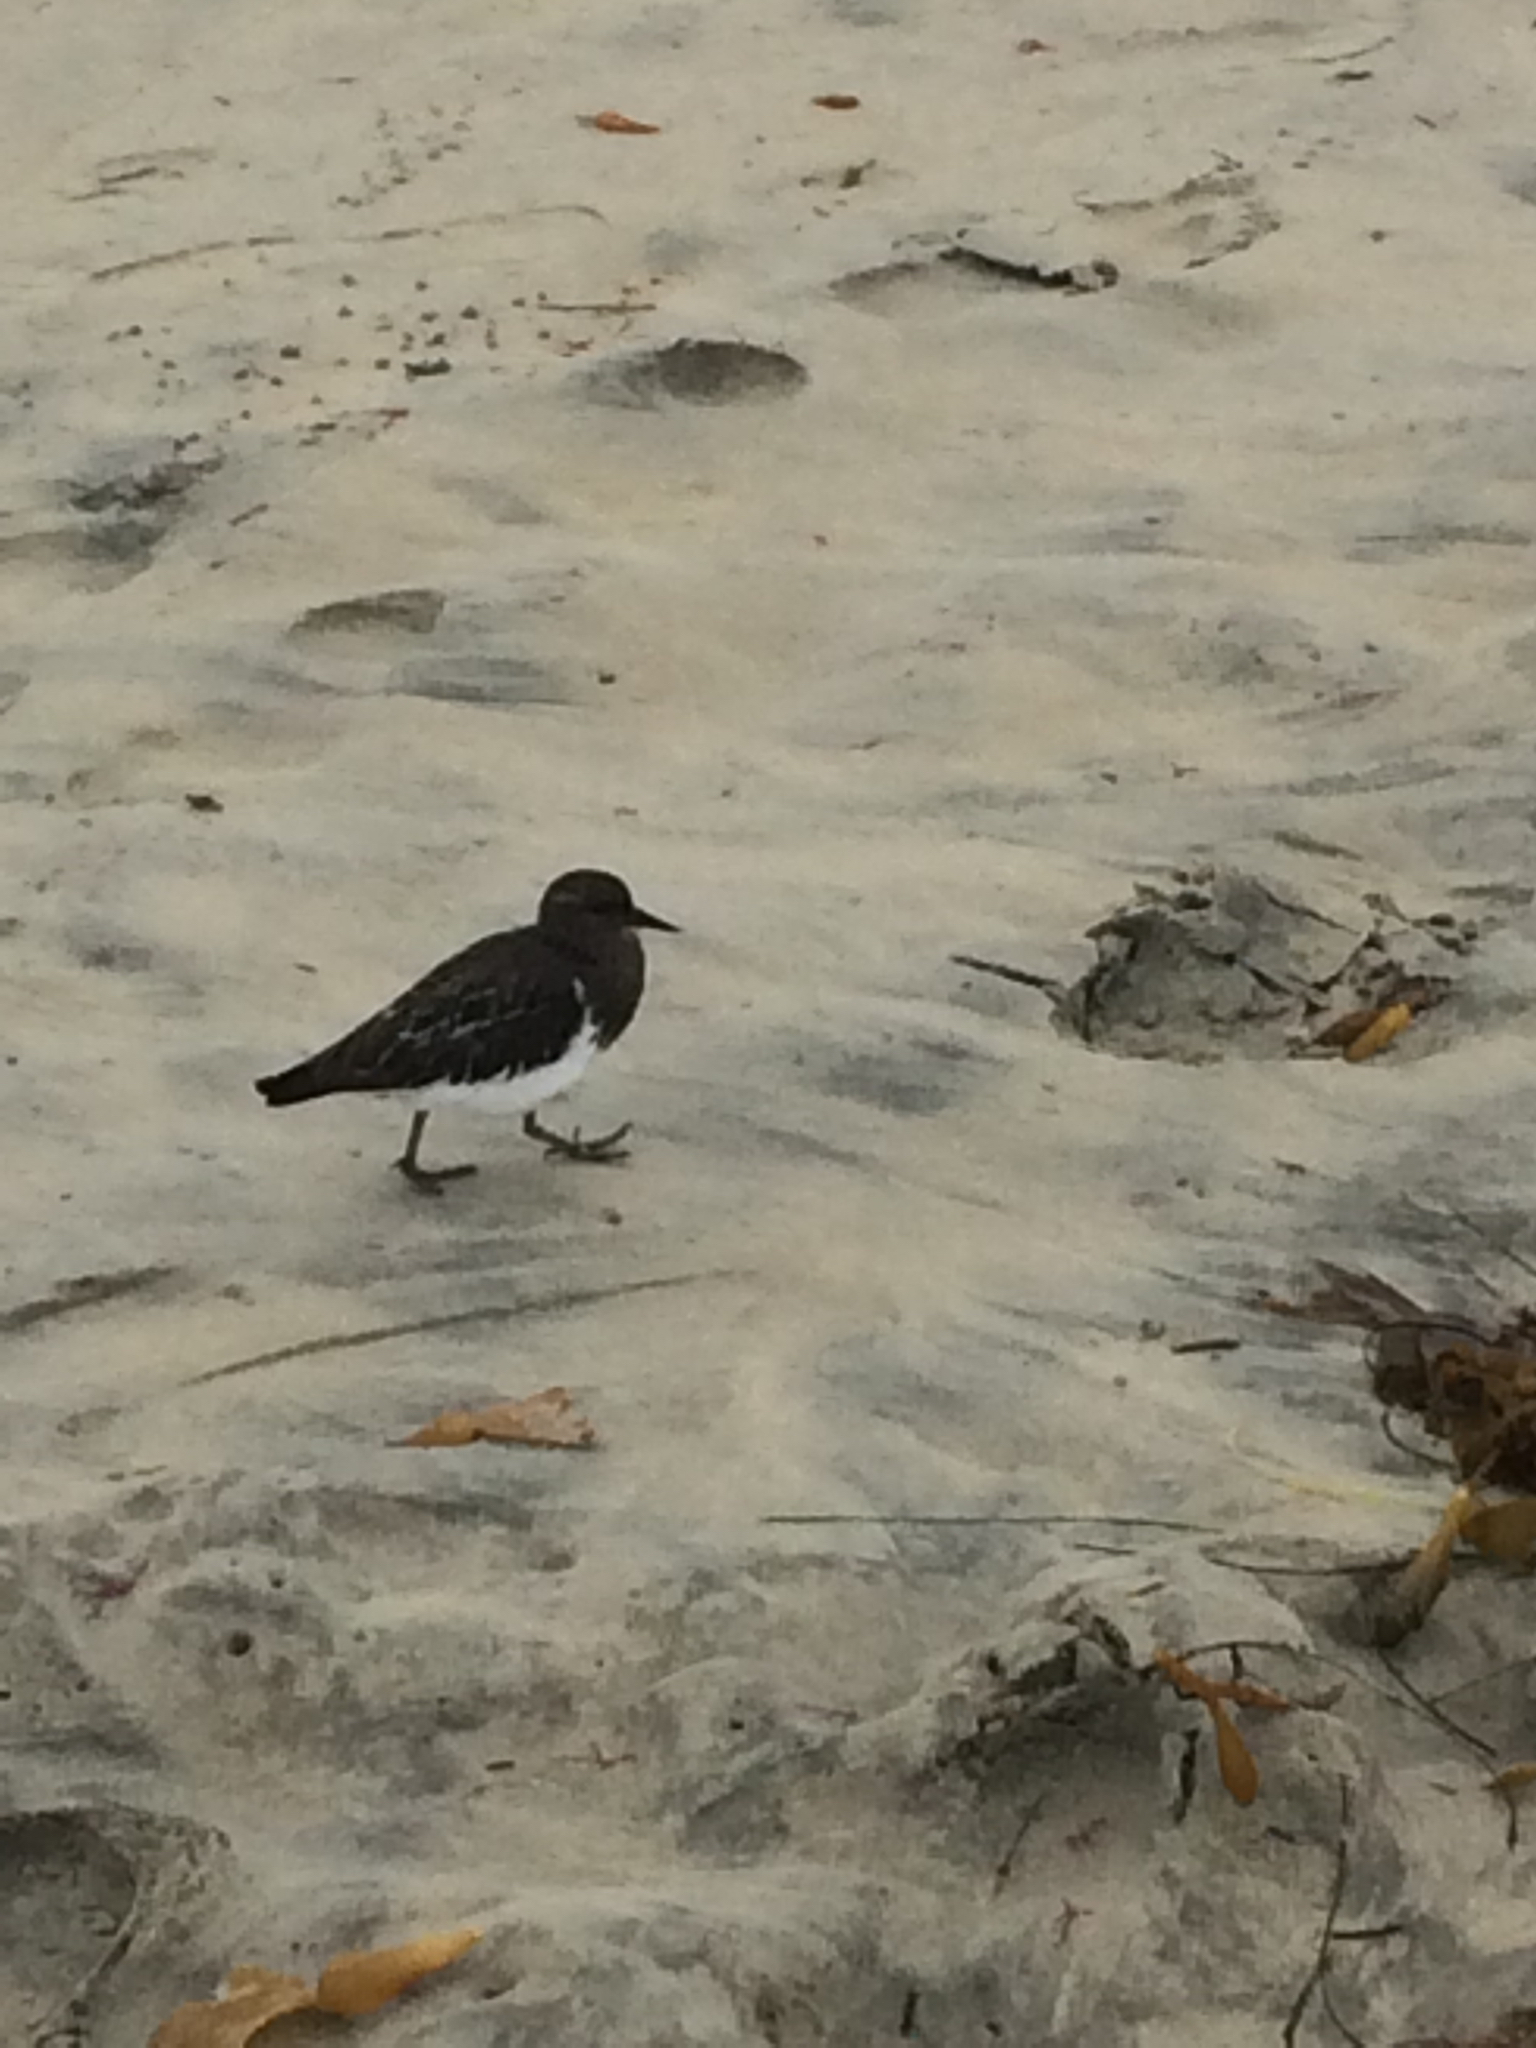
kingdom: Animalia
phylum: Chordata
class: Aves
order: Charadriiformes
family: Scolopacidae
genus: Arenaria
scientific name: Arenaria melanocephala
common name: Black turnstone
